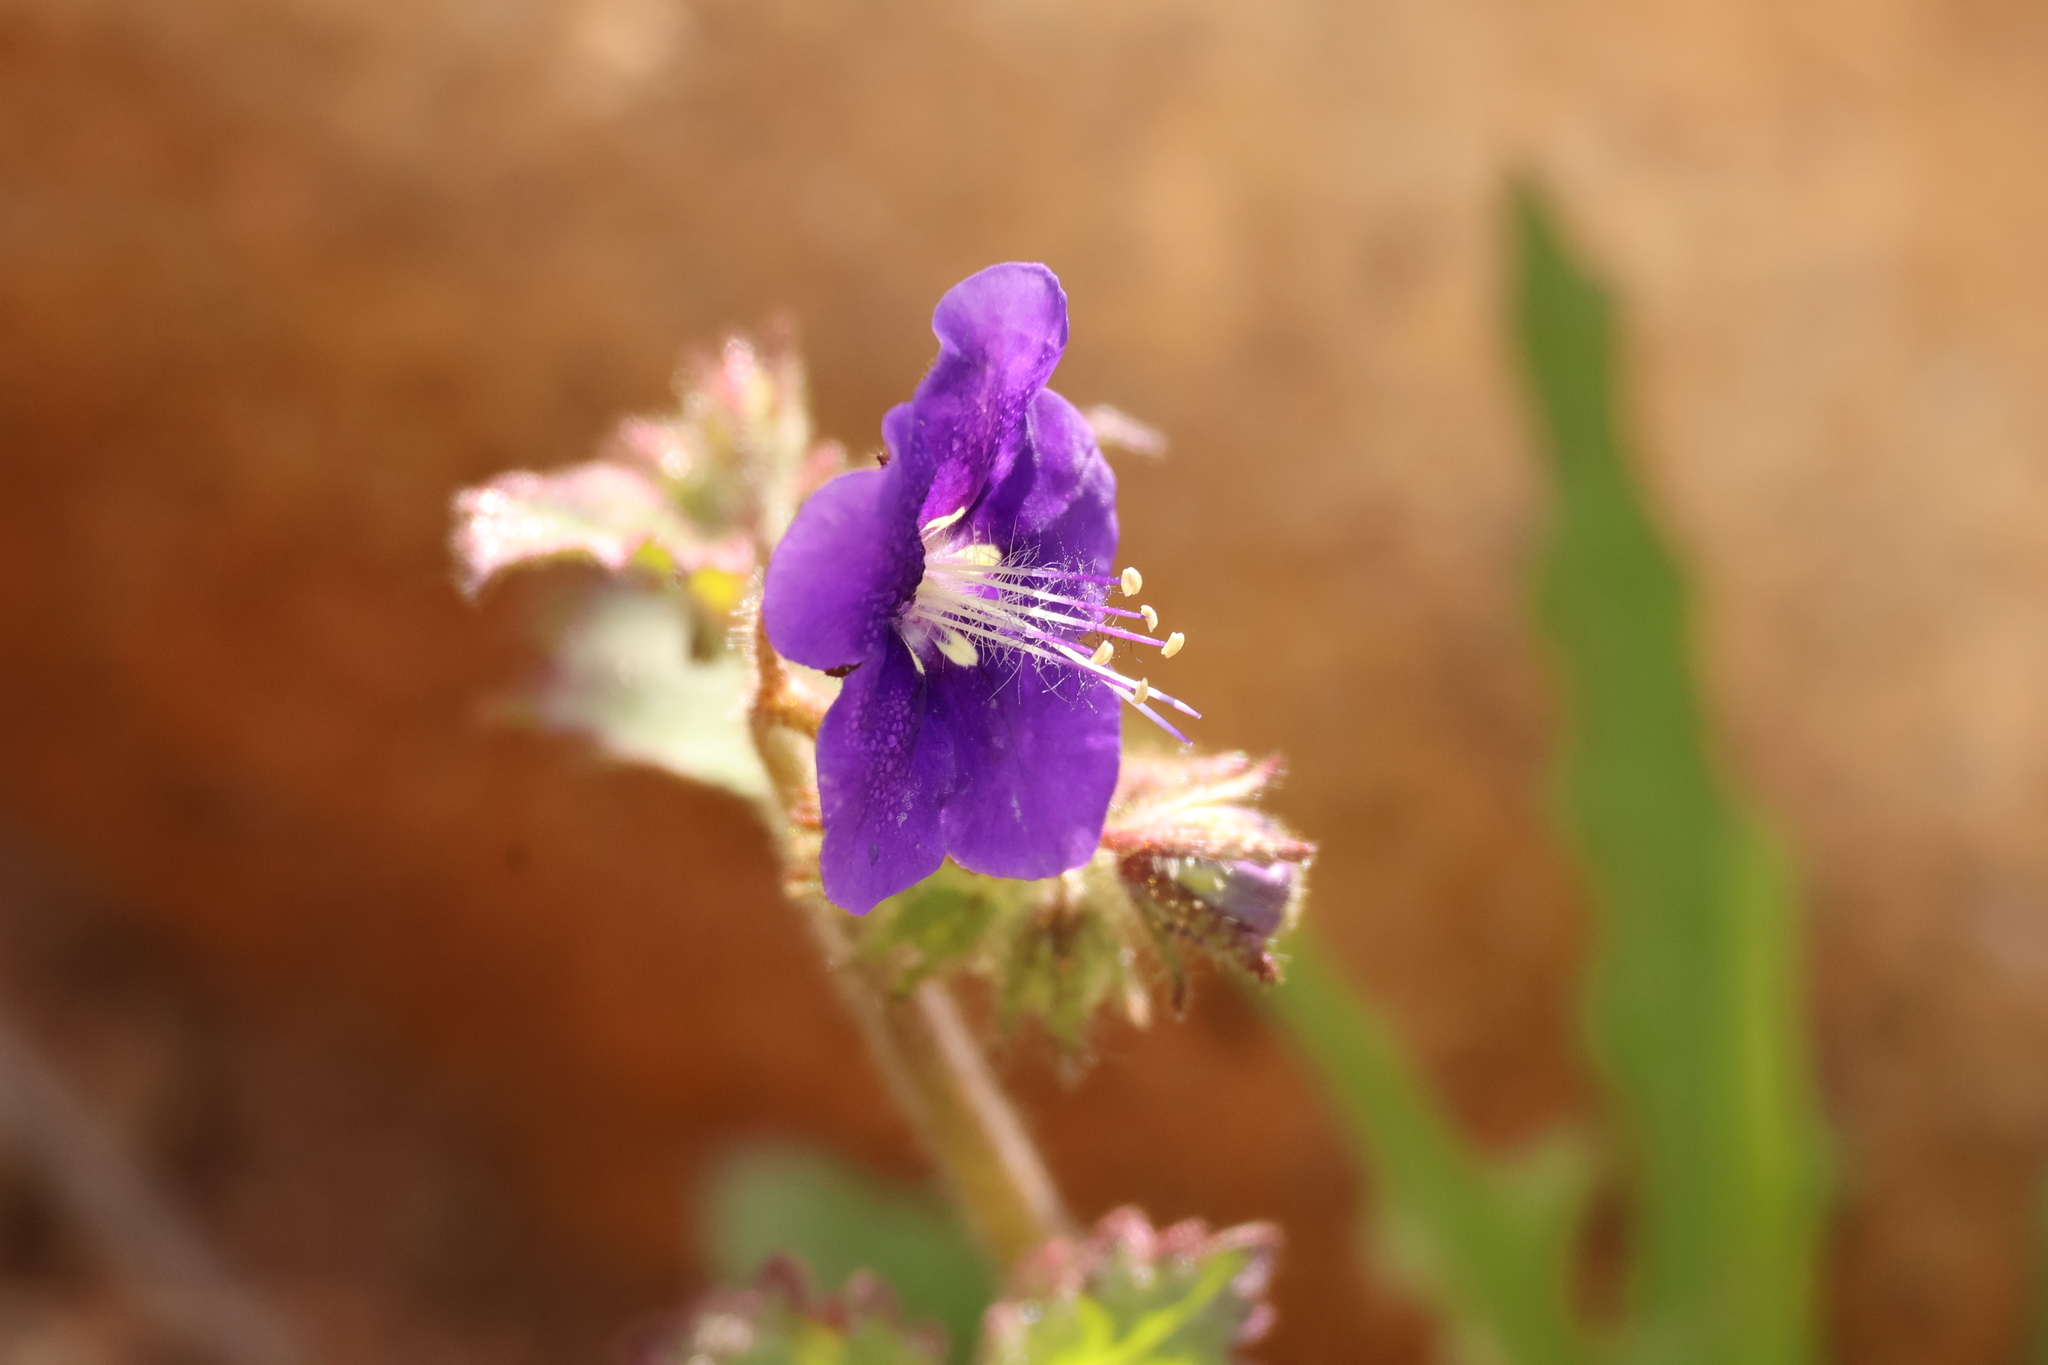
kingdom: Plantae
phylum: Tracheophyta
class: Magnoliopsida
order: Boraginales
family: Hydrophyllaceae
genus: Phacelia
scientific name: Phacelia parryi
